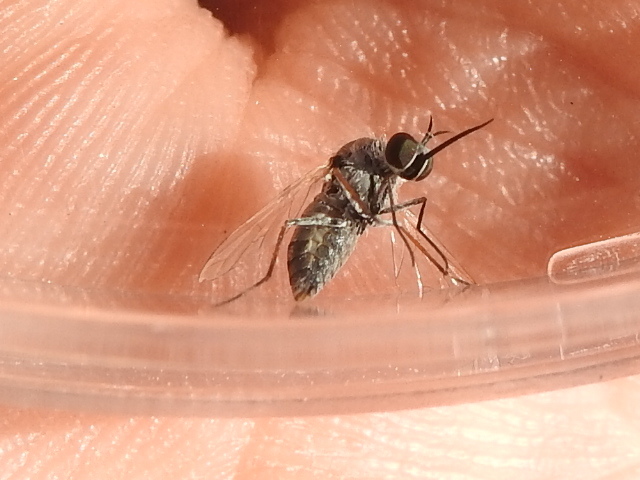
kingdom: Animalia
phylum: Arthropoda
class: Insecta
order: Diptera
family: Bombyliidae
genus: Geron
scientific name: Geron prosopidis
